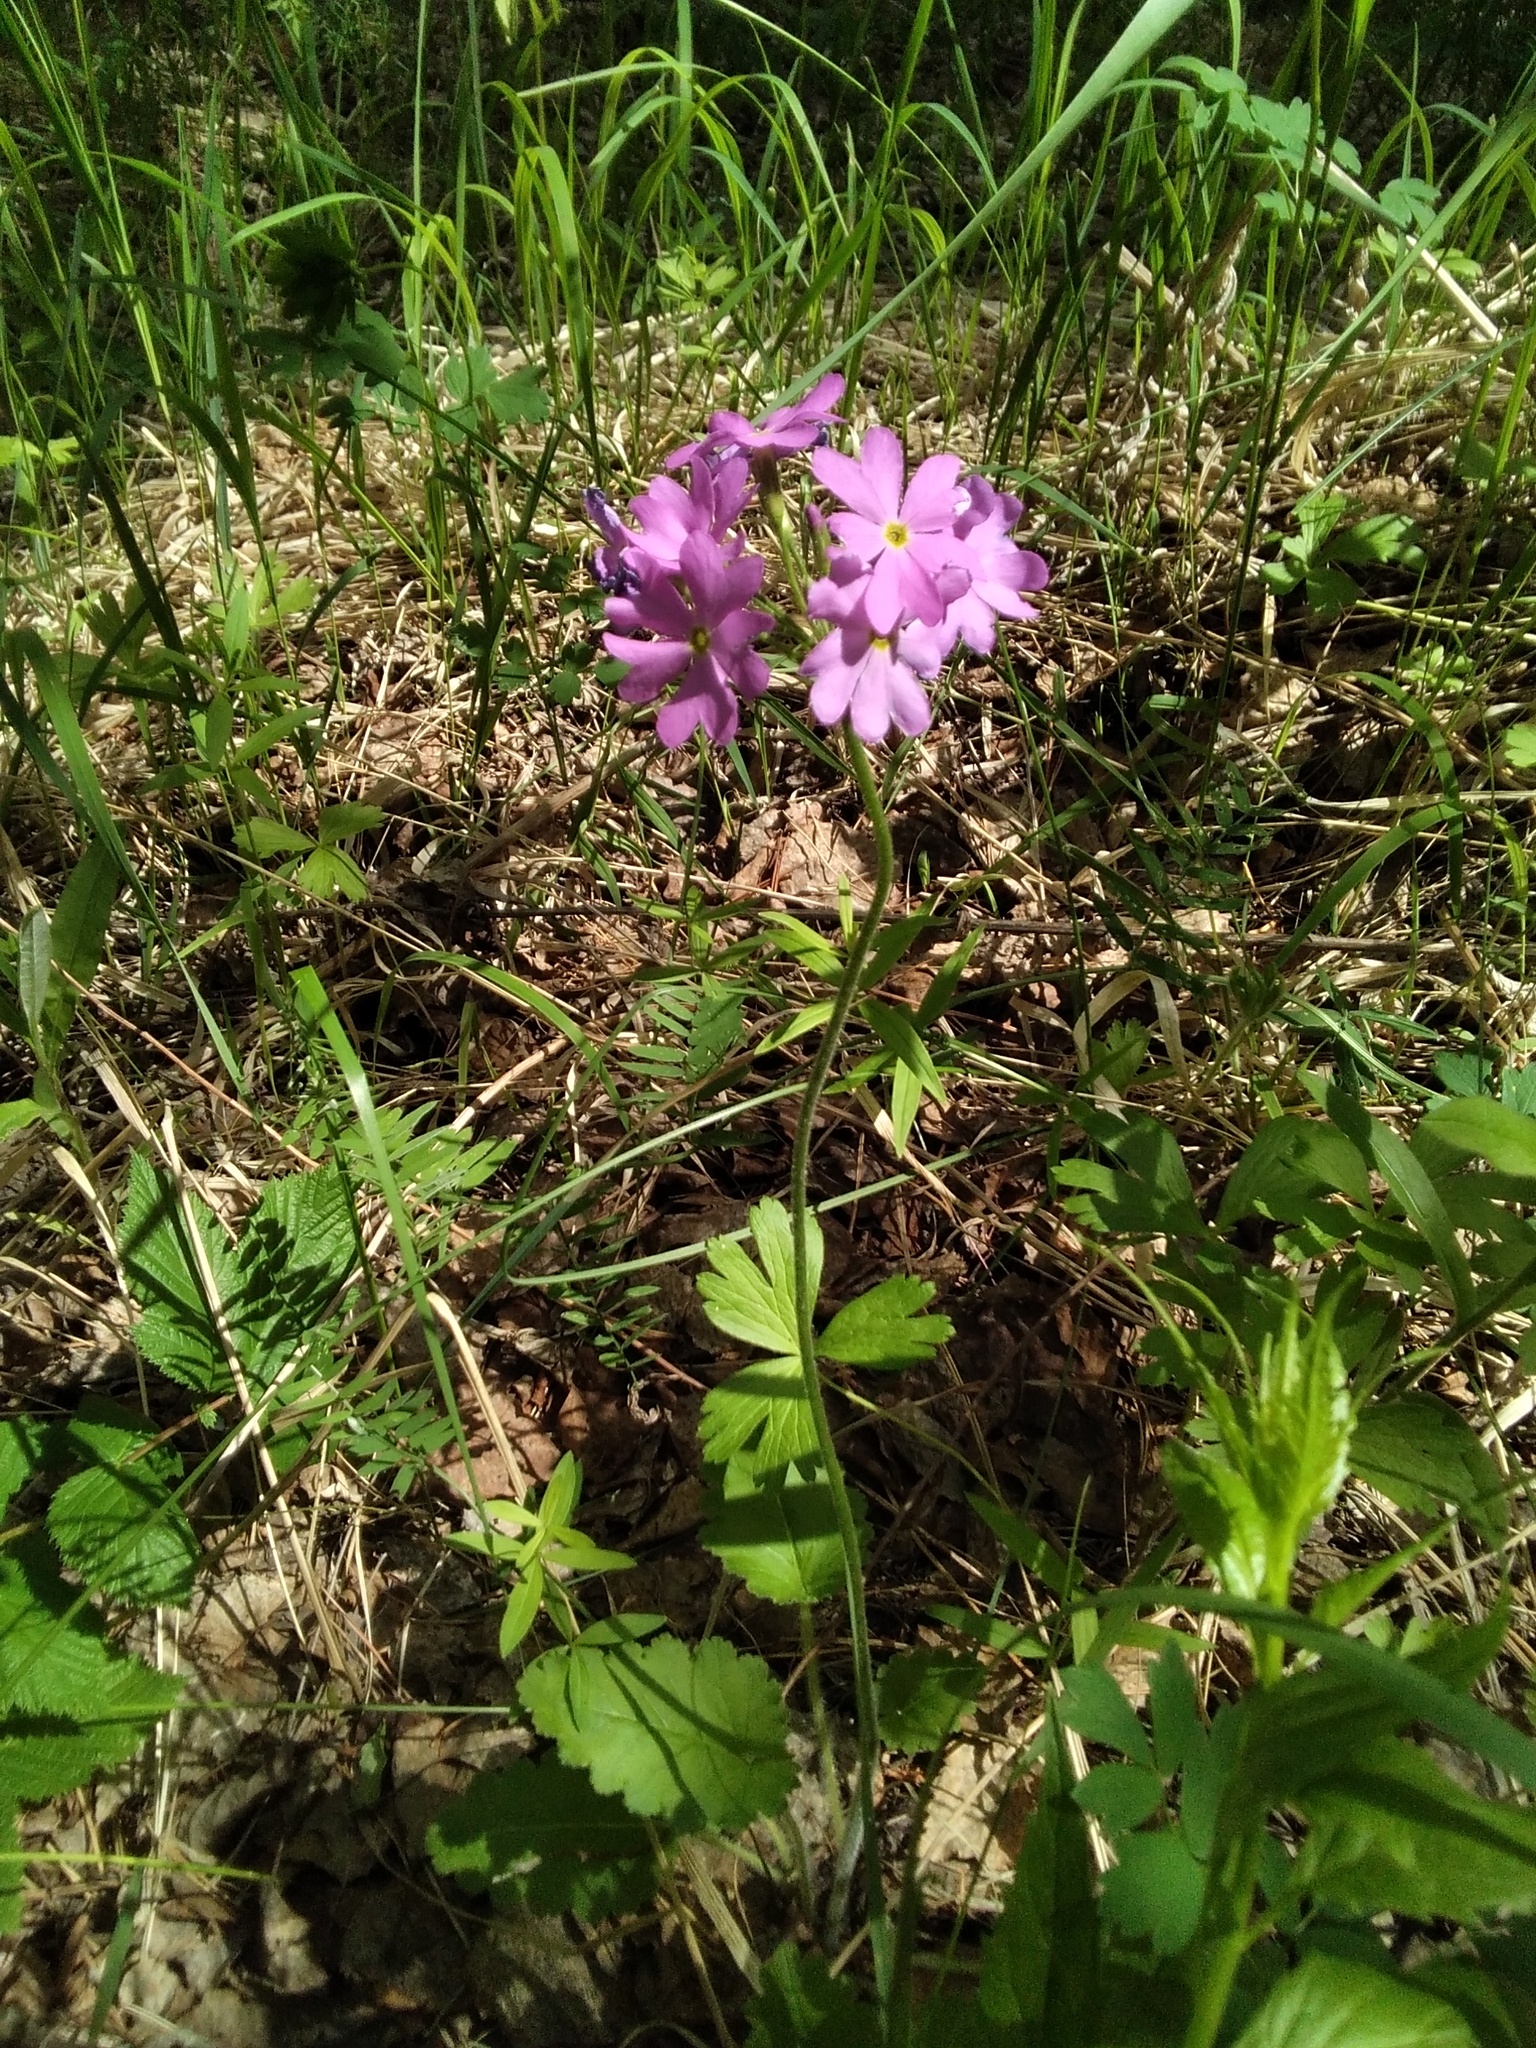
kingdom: Plantae
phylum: Tracheophyta
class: Magnoliopsida
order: Ericales
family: Primulaceae
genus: Primula
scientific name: Primula cortusoides
